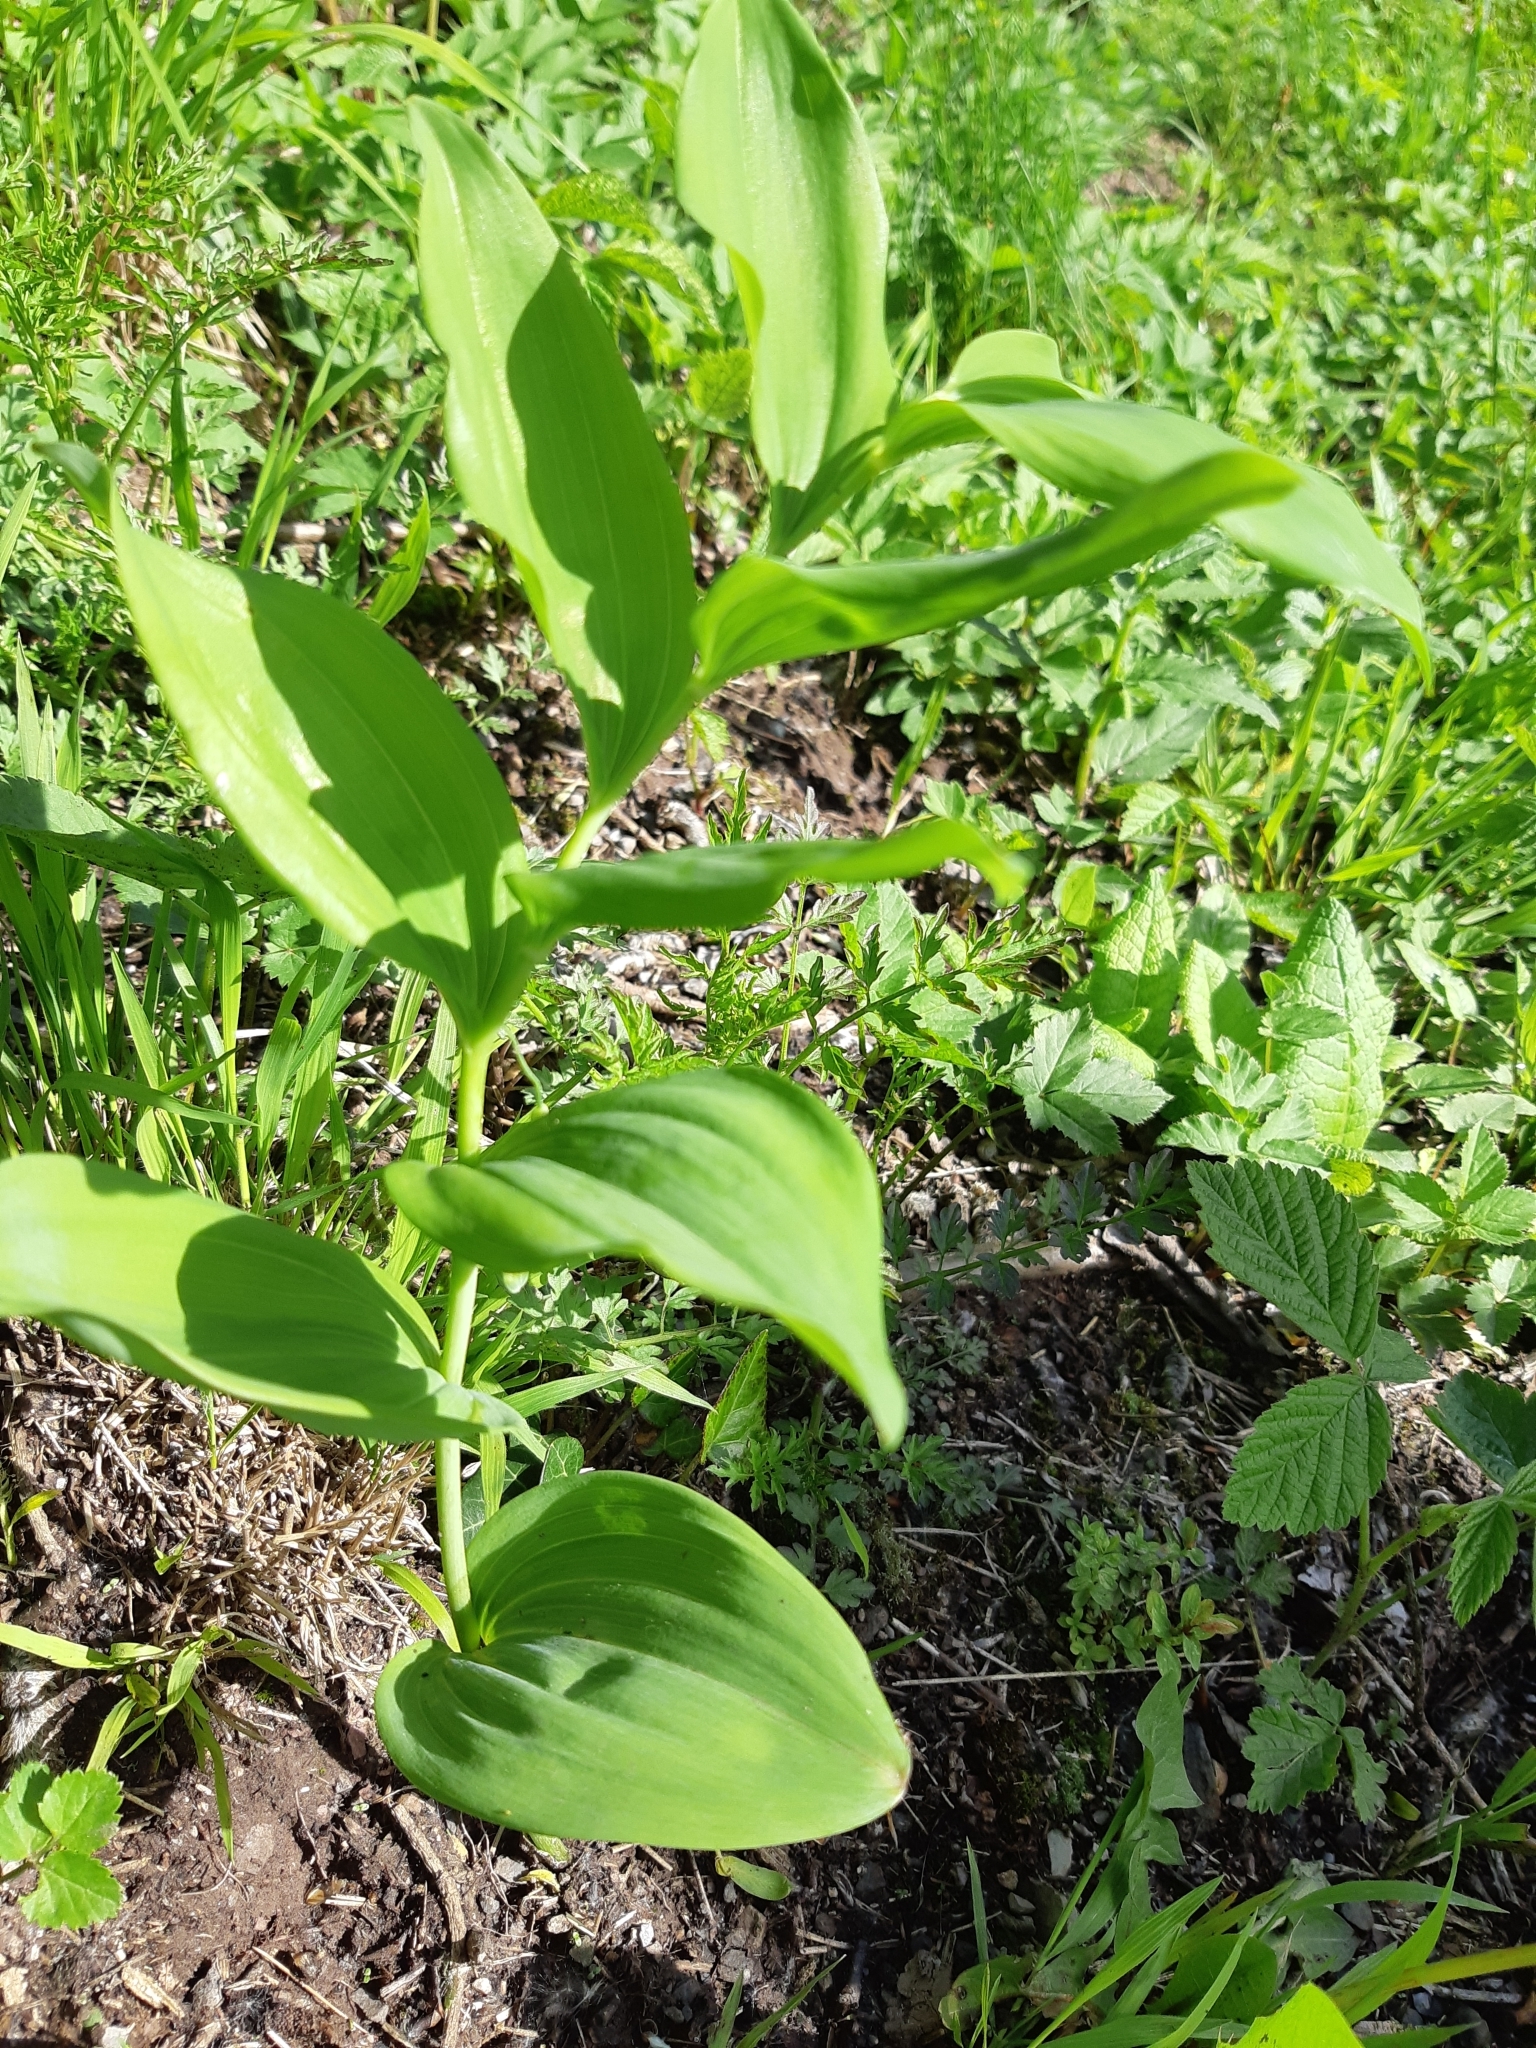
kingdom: Plantae
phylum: Tracheophyta
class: Liliopsida
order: Asparagales
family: Asparagaceae
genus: Polygonatum
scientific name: Polygonatum multiflorum
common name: Solomon's-seal
